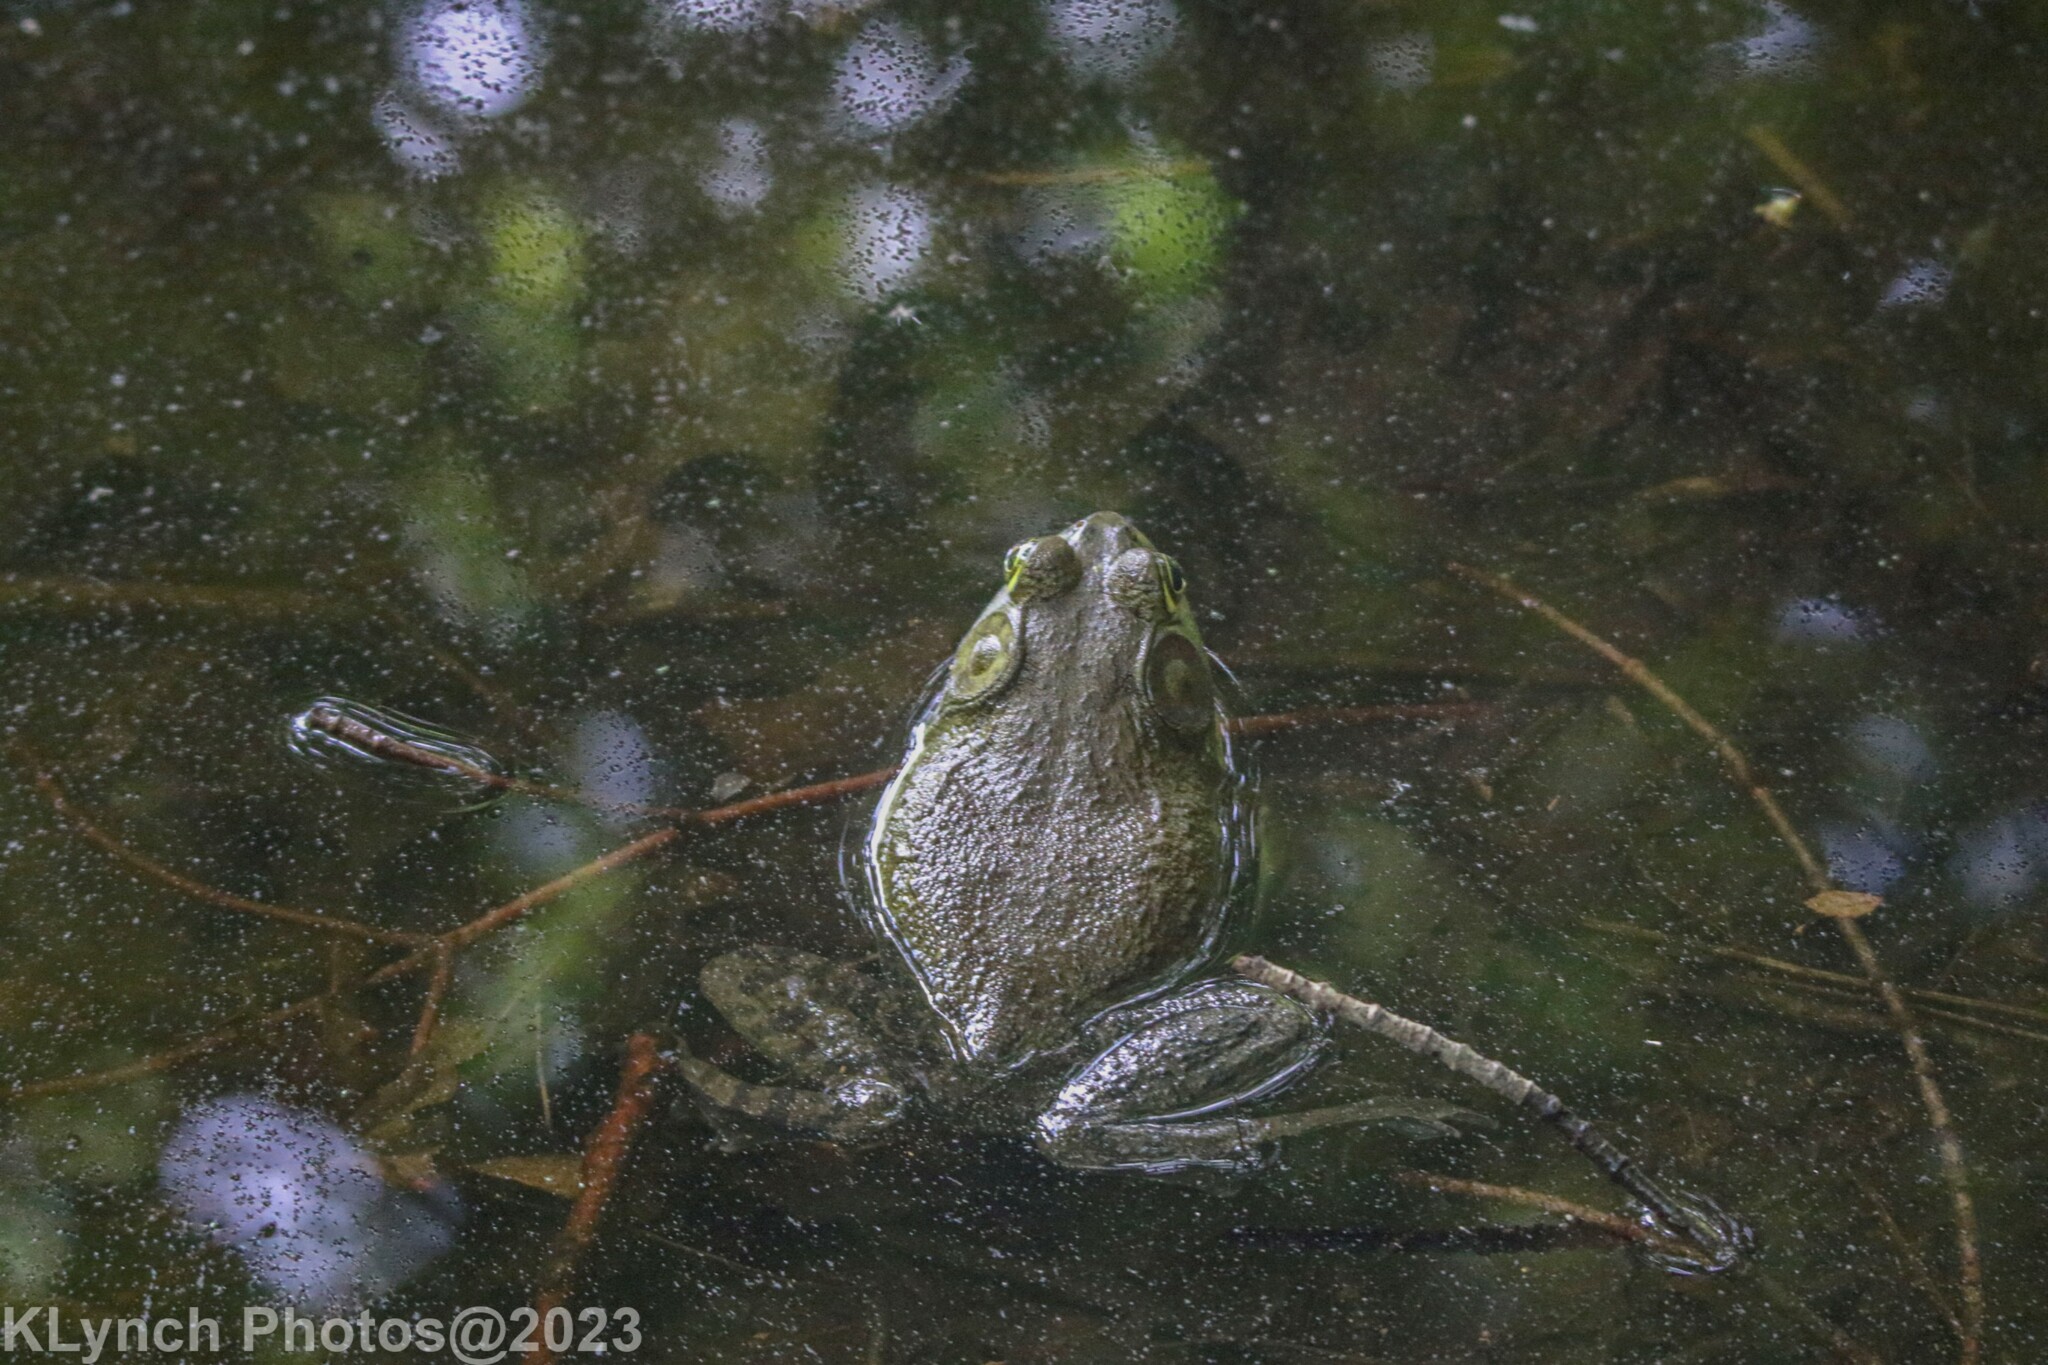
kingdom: Animalia
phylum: Chordata
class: Amphibia
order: Anura
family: Ranidae
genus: Lithobates
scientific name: Lithobates catesbeianus
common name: American bullfrog
